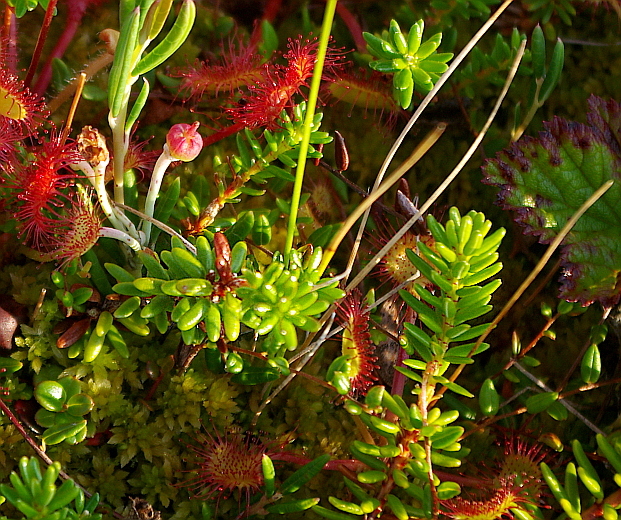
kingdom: Plantae
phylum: Tracheophyta
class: Magnoliopsida
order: Ericales
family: Ericaceae
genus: Empetrum
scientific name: Empetrum nigrum
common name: Black crowberry
